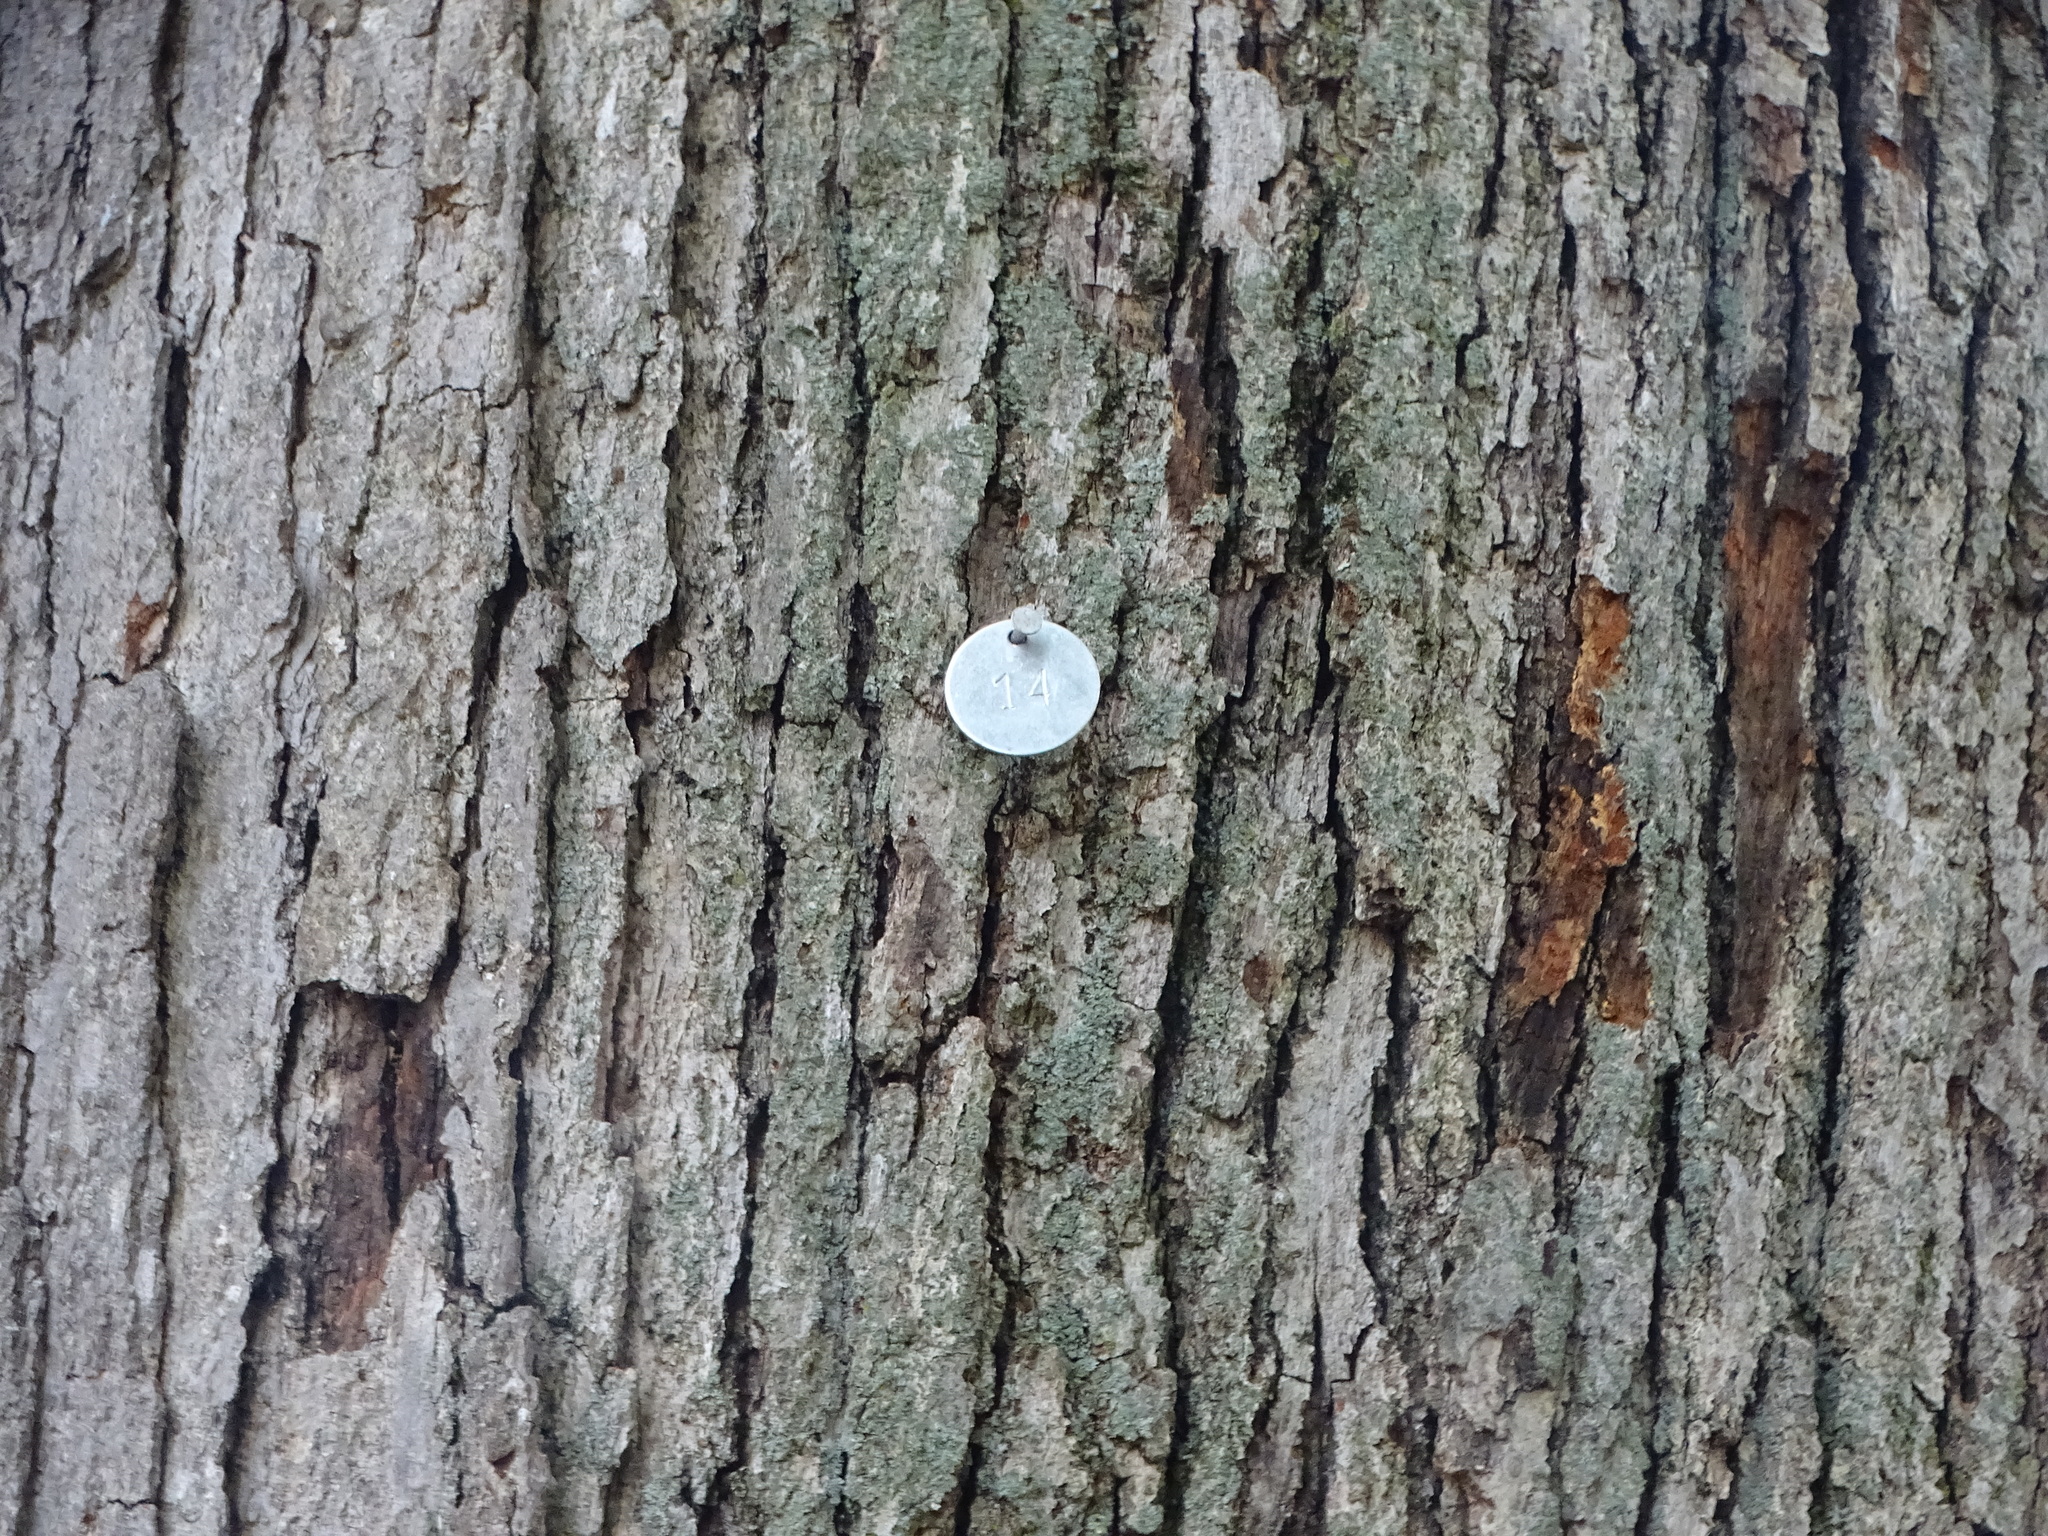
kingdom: Plantae
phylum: Tracheophyta
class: Magnoliopsida
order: Fagales
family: Fagaceae
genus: Quercus
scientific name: Quercus alba
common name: White oak
